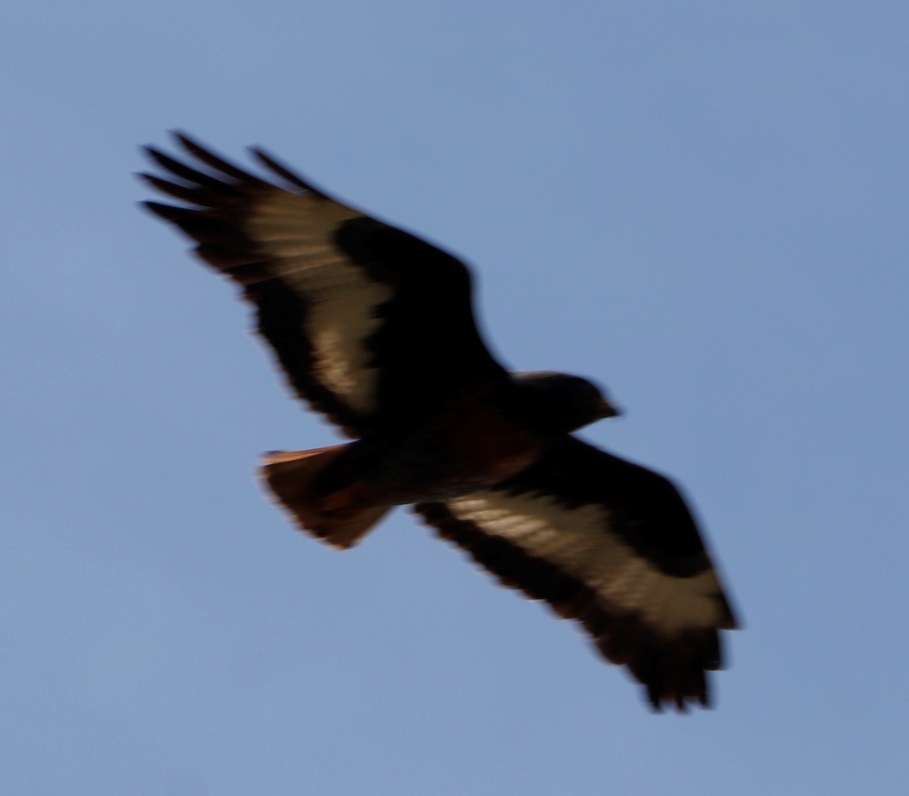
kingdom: Animalia
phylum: Chordata
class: Aves
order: Accipitriformes
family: Accipitridae
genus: Buteo
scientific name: Buteo rufofuscus
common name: Jackal buzzard
